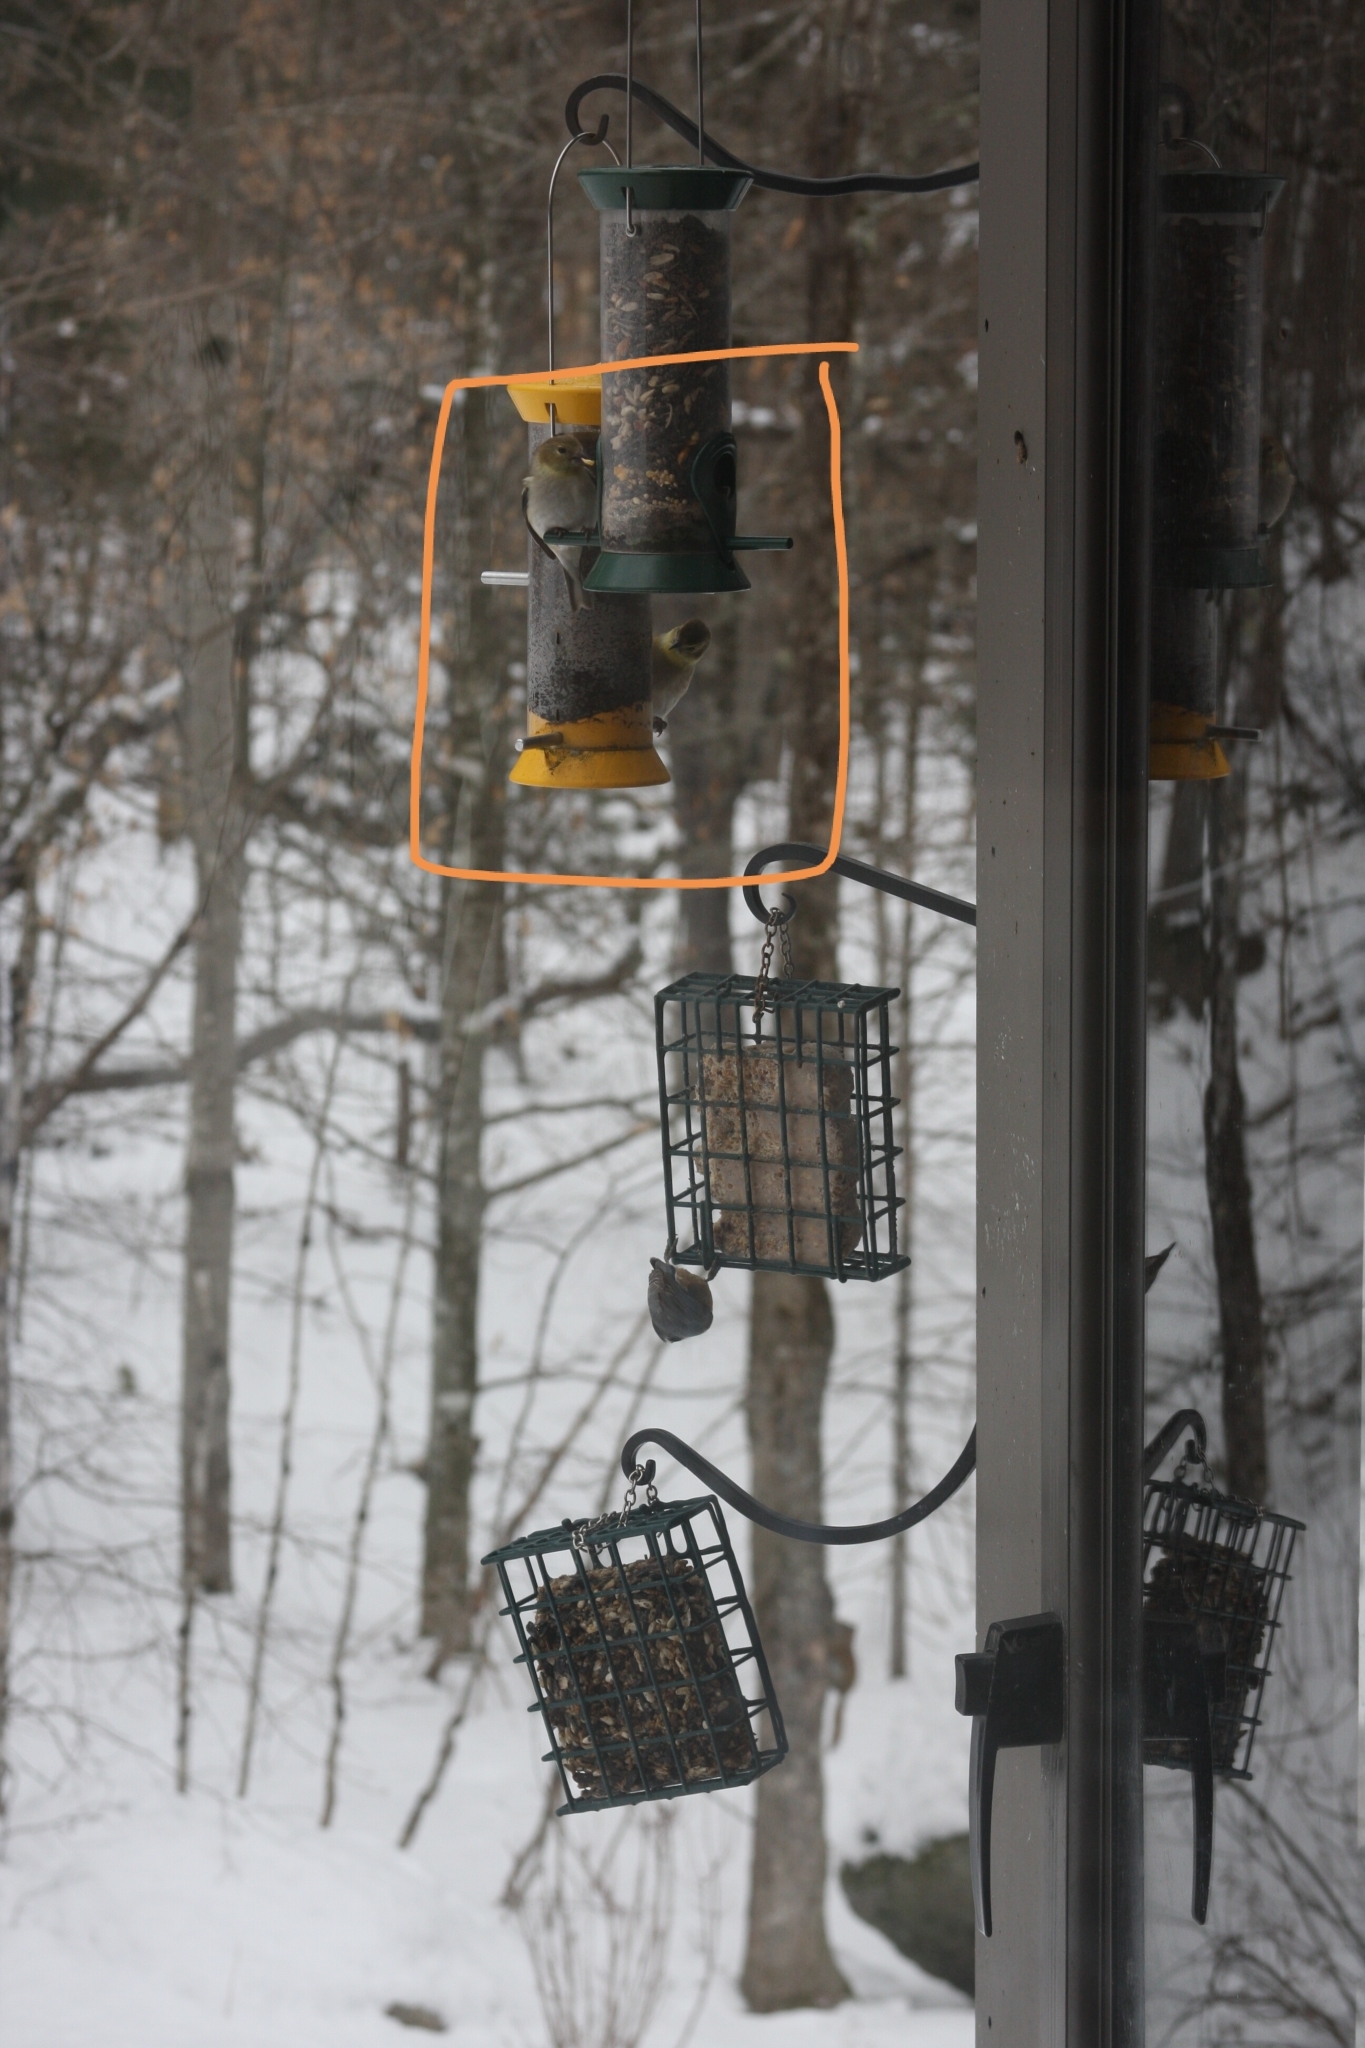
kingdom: Animalia
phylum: Chordata
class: Aves
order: Passeriformes
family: Fringillidae
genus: Spinus
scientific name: Spinus tristis
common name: American goldfinch
